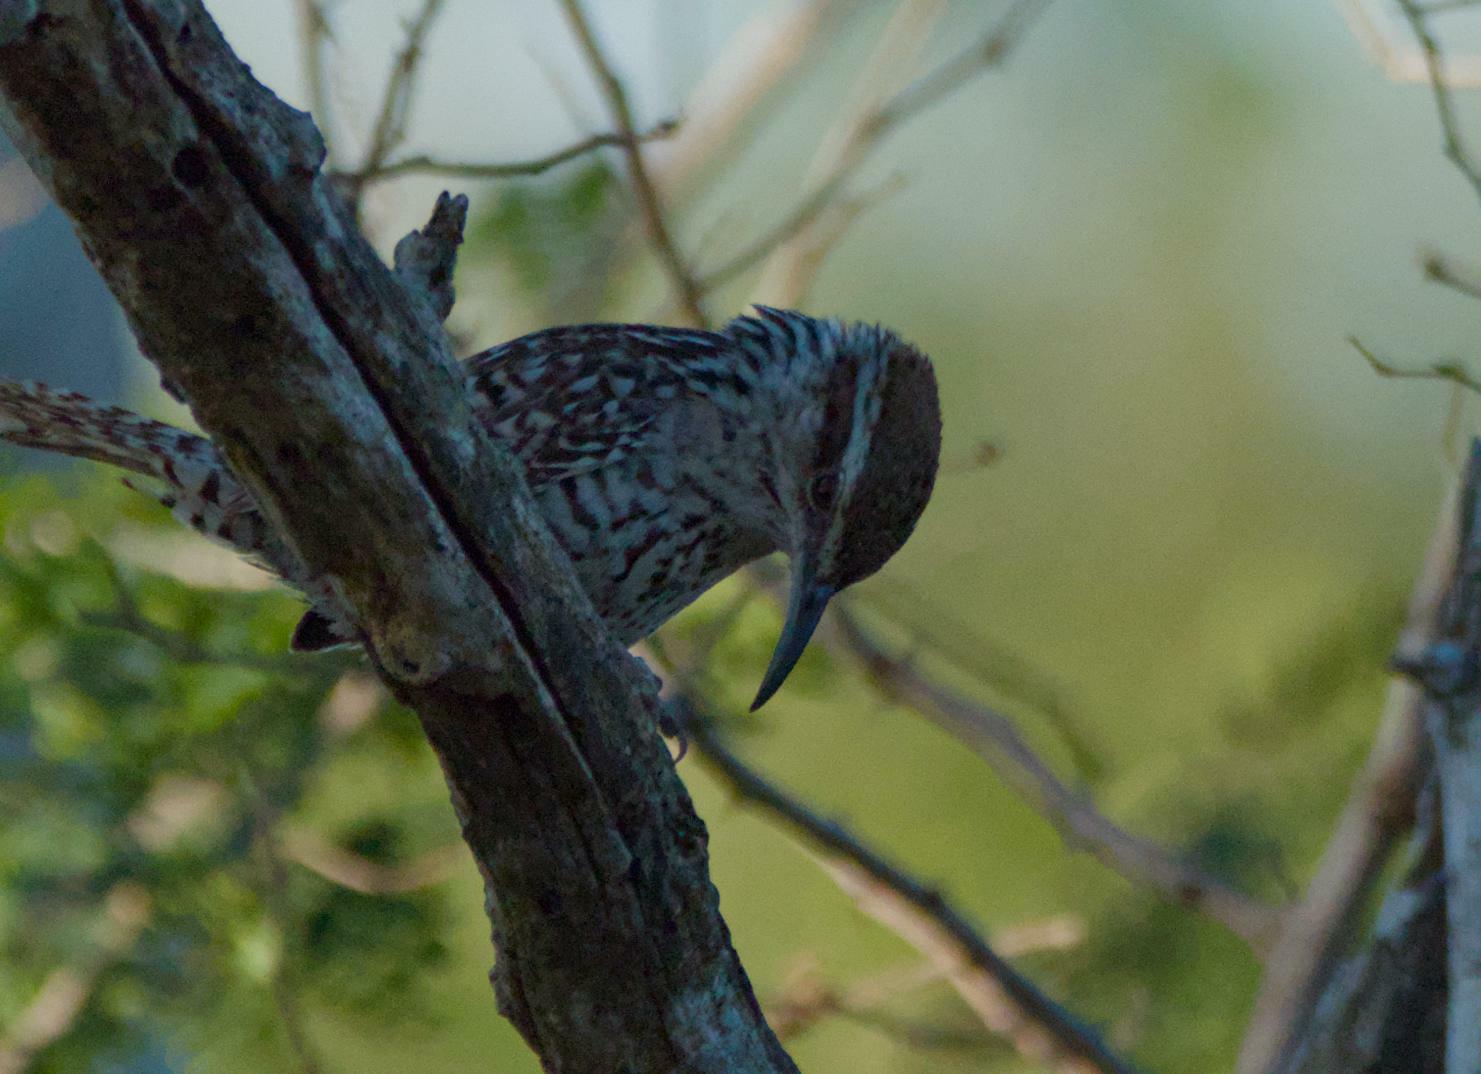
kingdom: Animalia
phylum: Chordata
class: Aves
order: Passeriformes
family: Troglodytidae
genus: Campylorhynchus
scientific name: Campylorhynchus yucatanicus
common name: Yucatan wren
